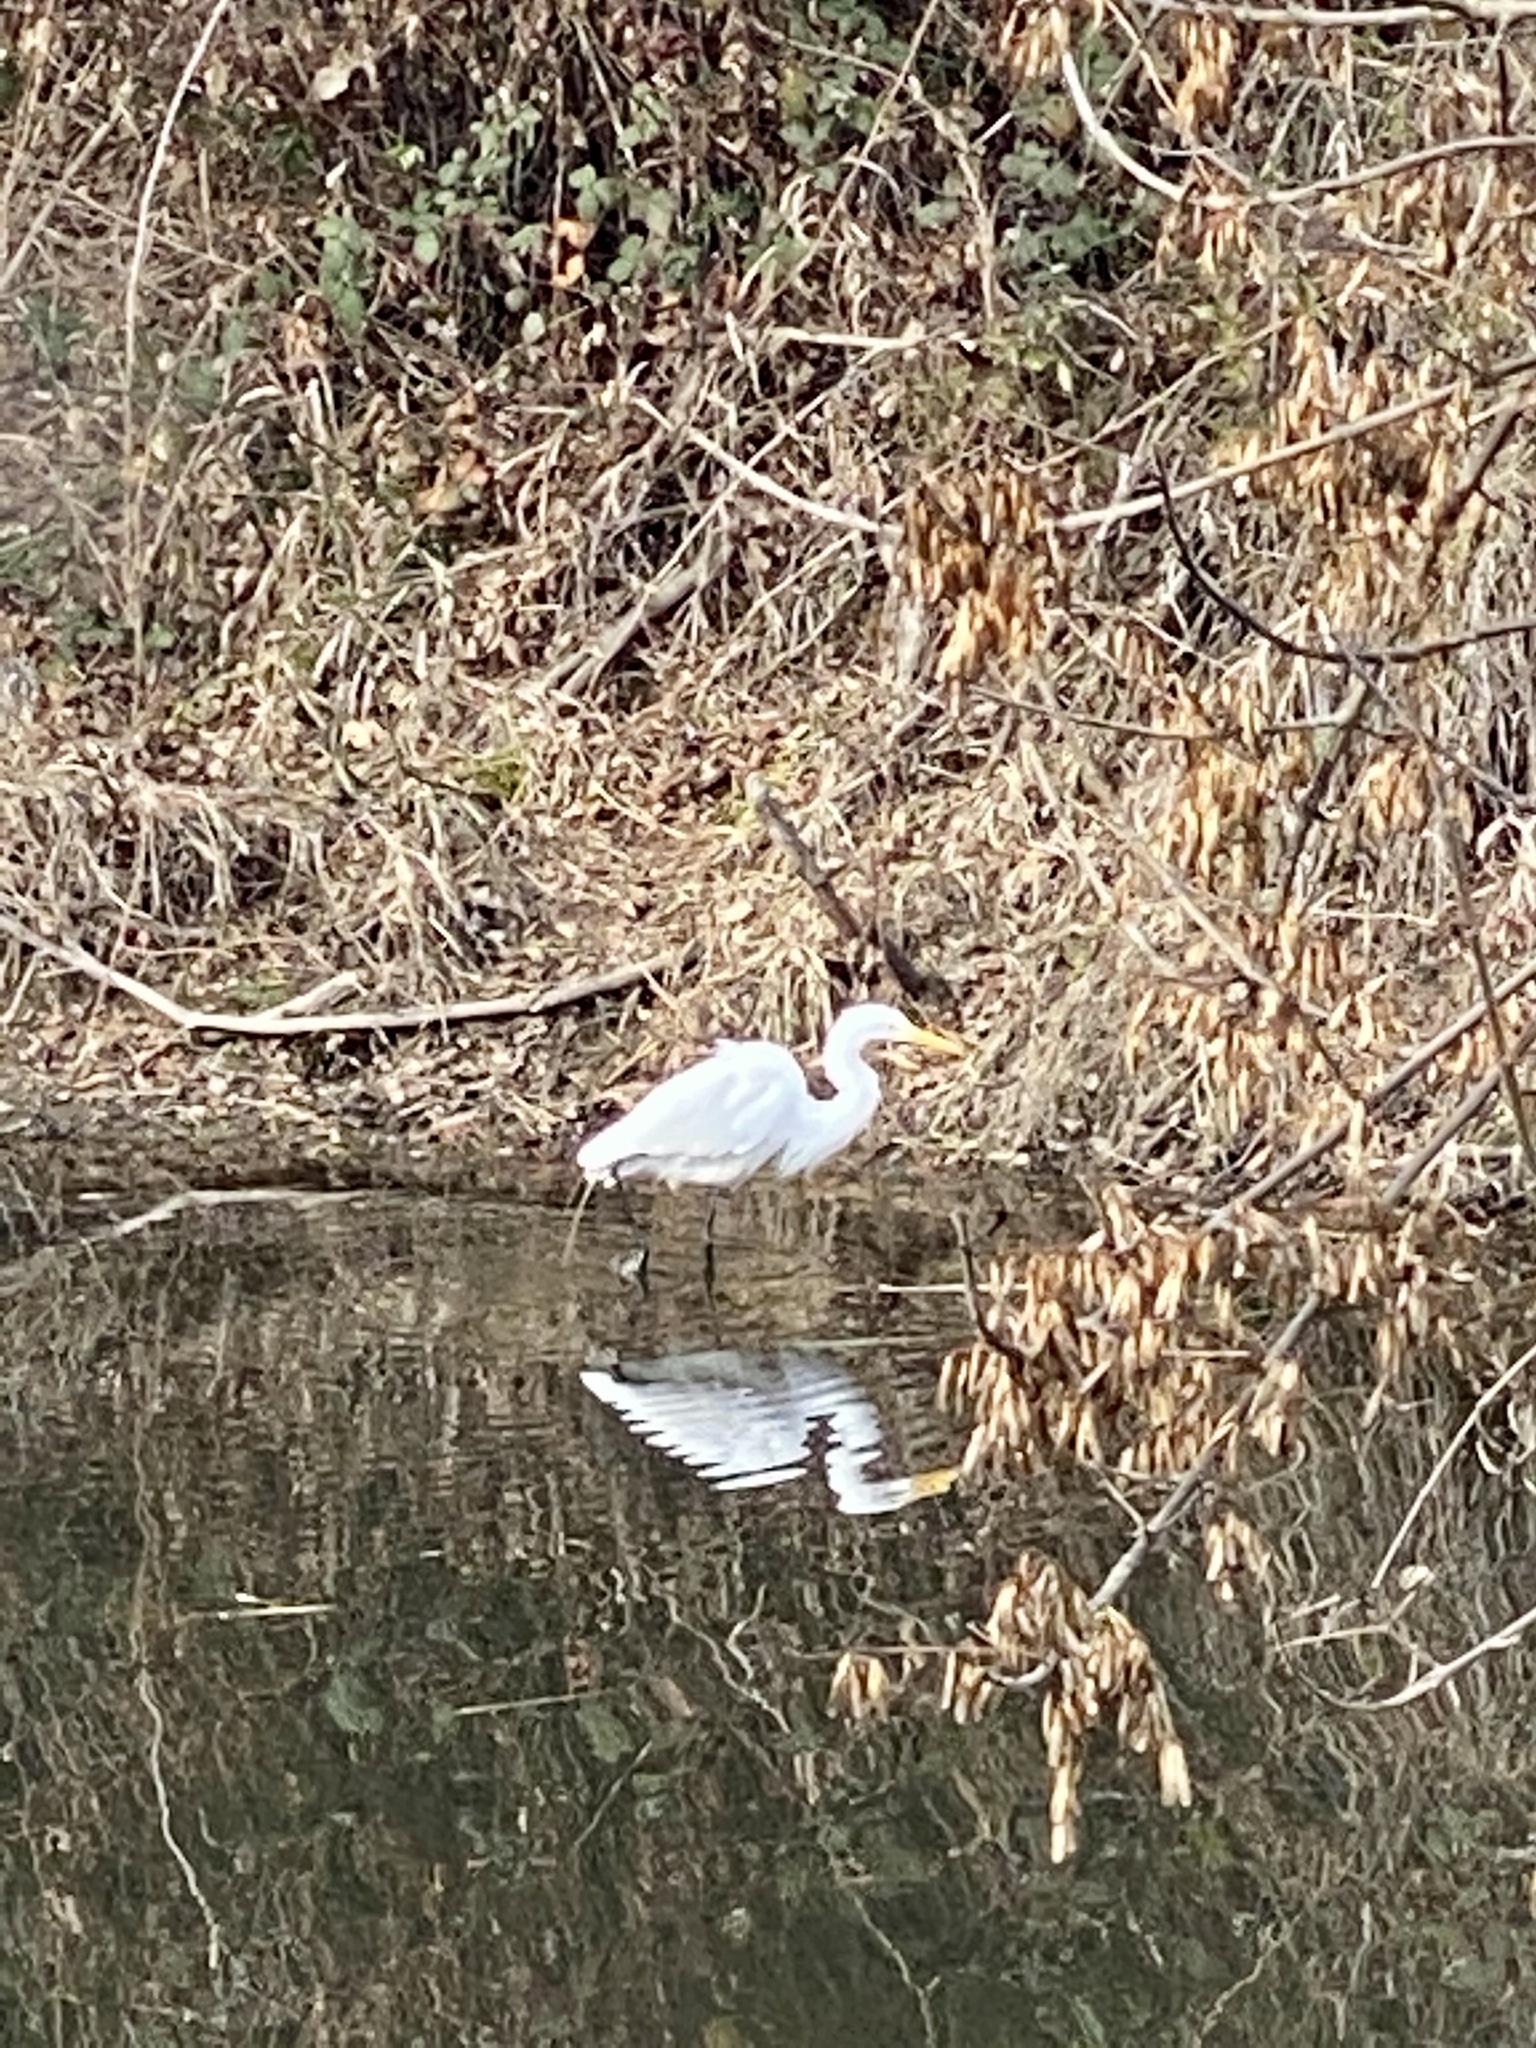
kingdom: Animalia
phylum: Chordata
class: Aves
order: Pelecaniformes
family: Ardeidae
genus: Ardea
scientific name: Ardea alba
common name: Great egret
